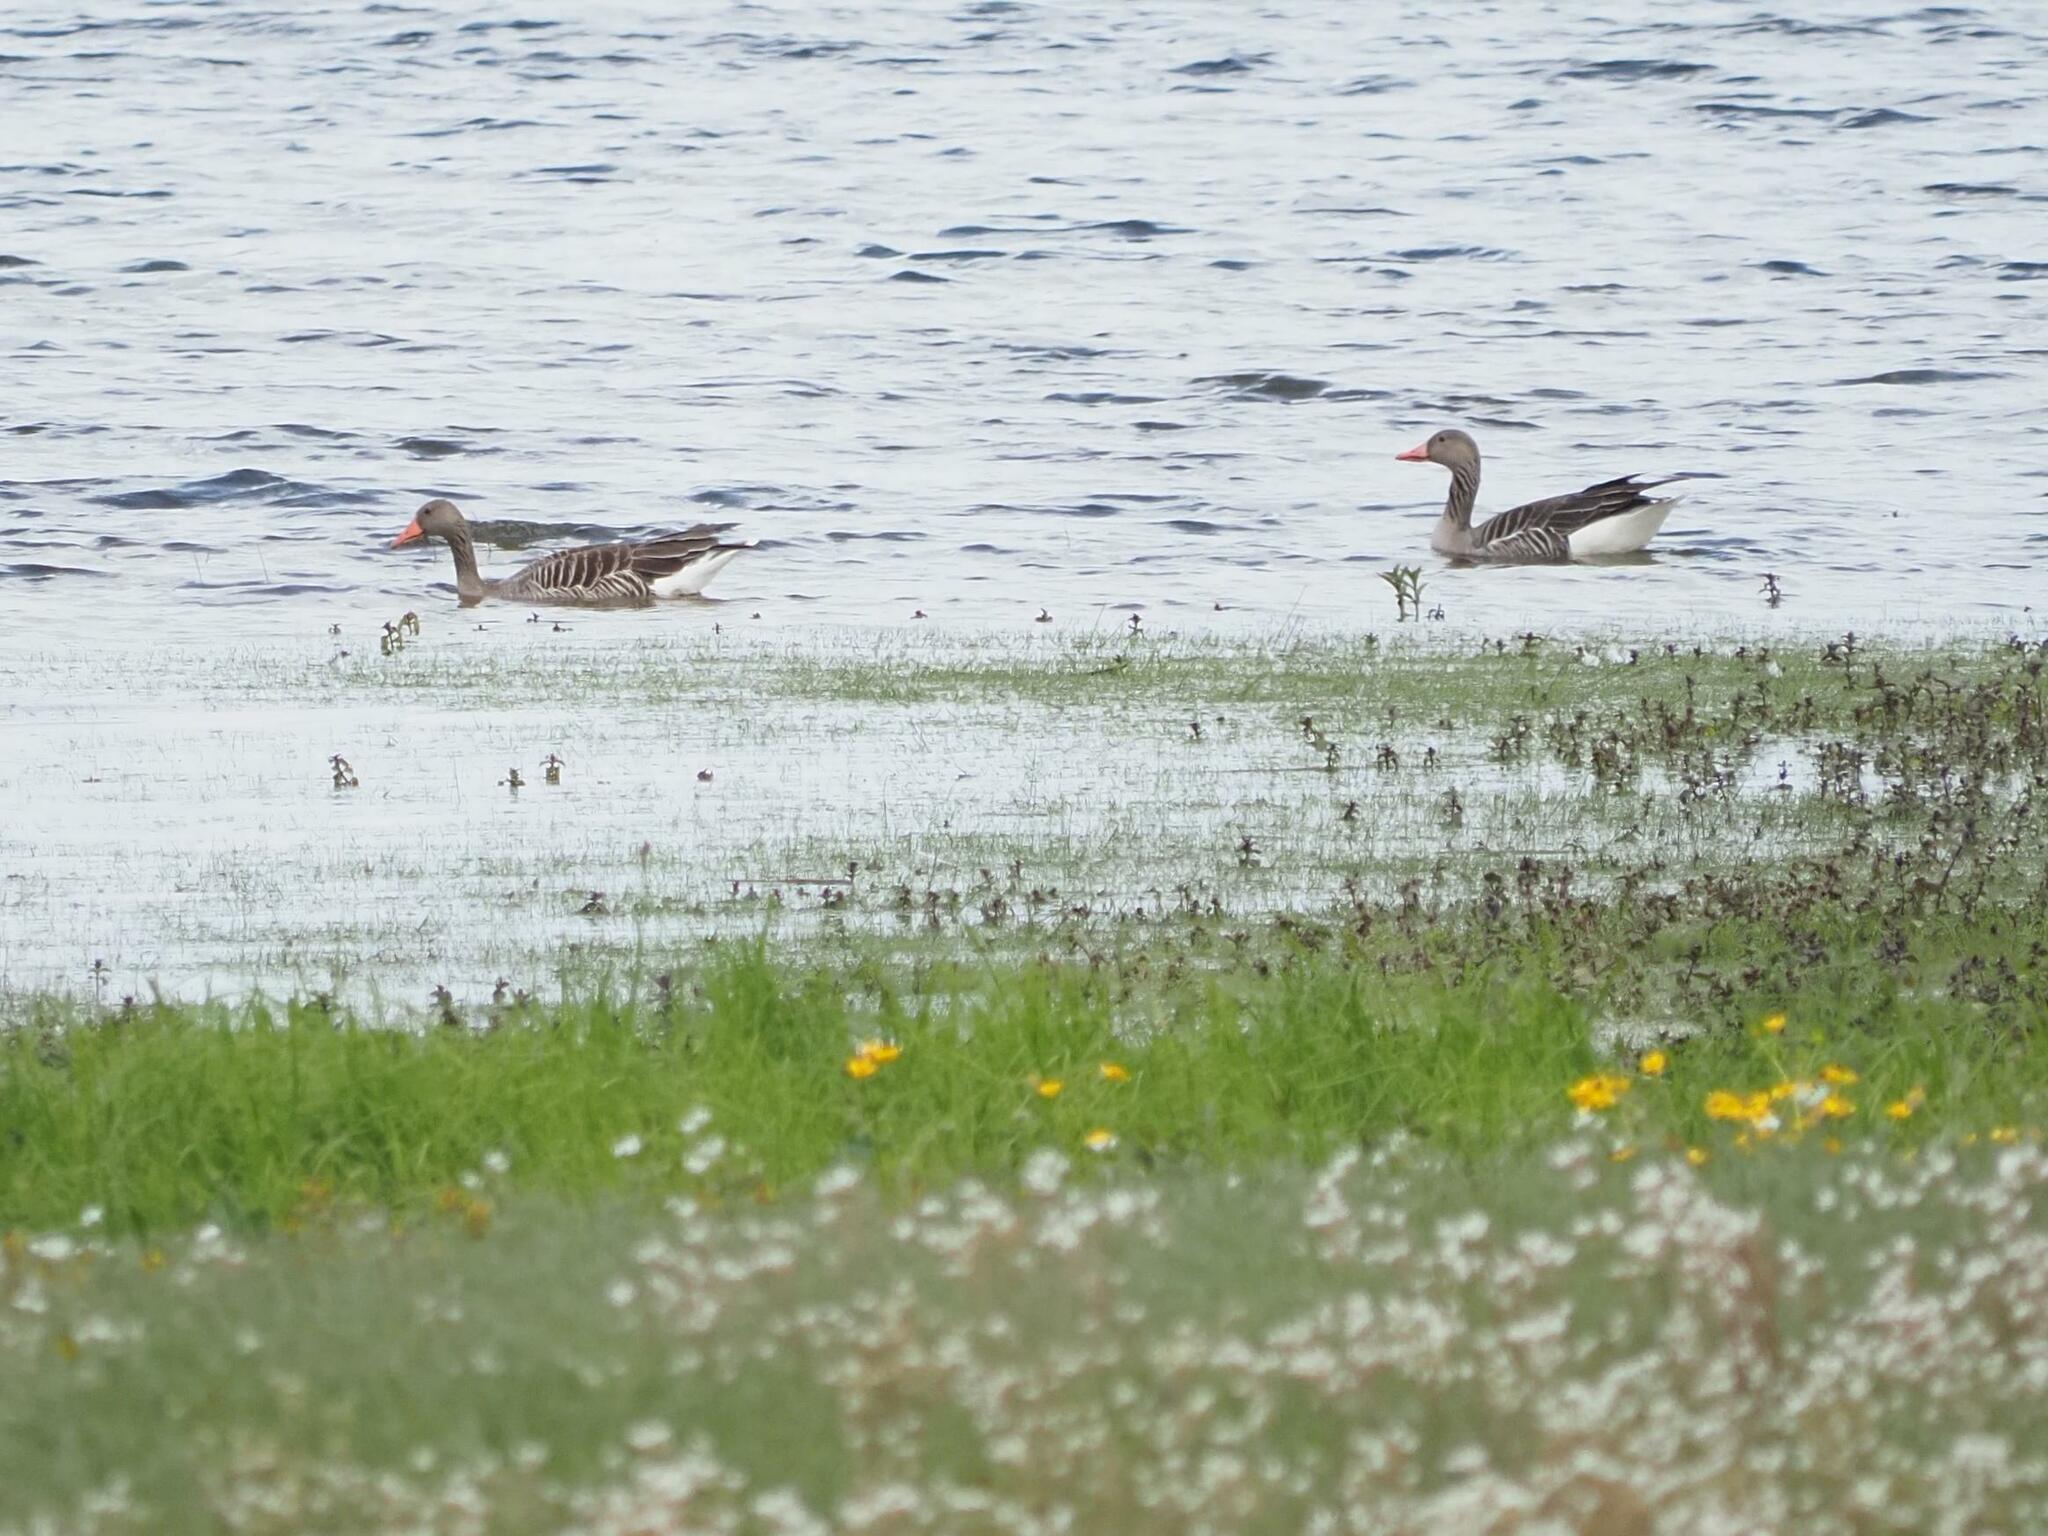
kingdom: Animalia
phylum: Chordata
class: Aves
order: Anseriformes
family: Anatidae
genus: Anser
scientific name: Anser anser
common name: Greylag goose
